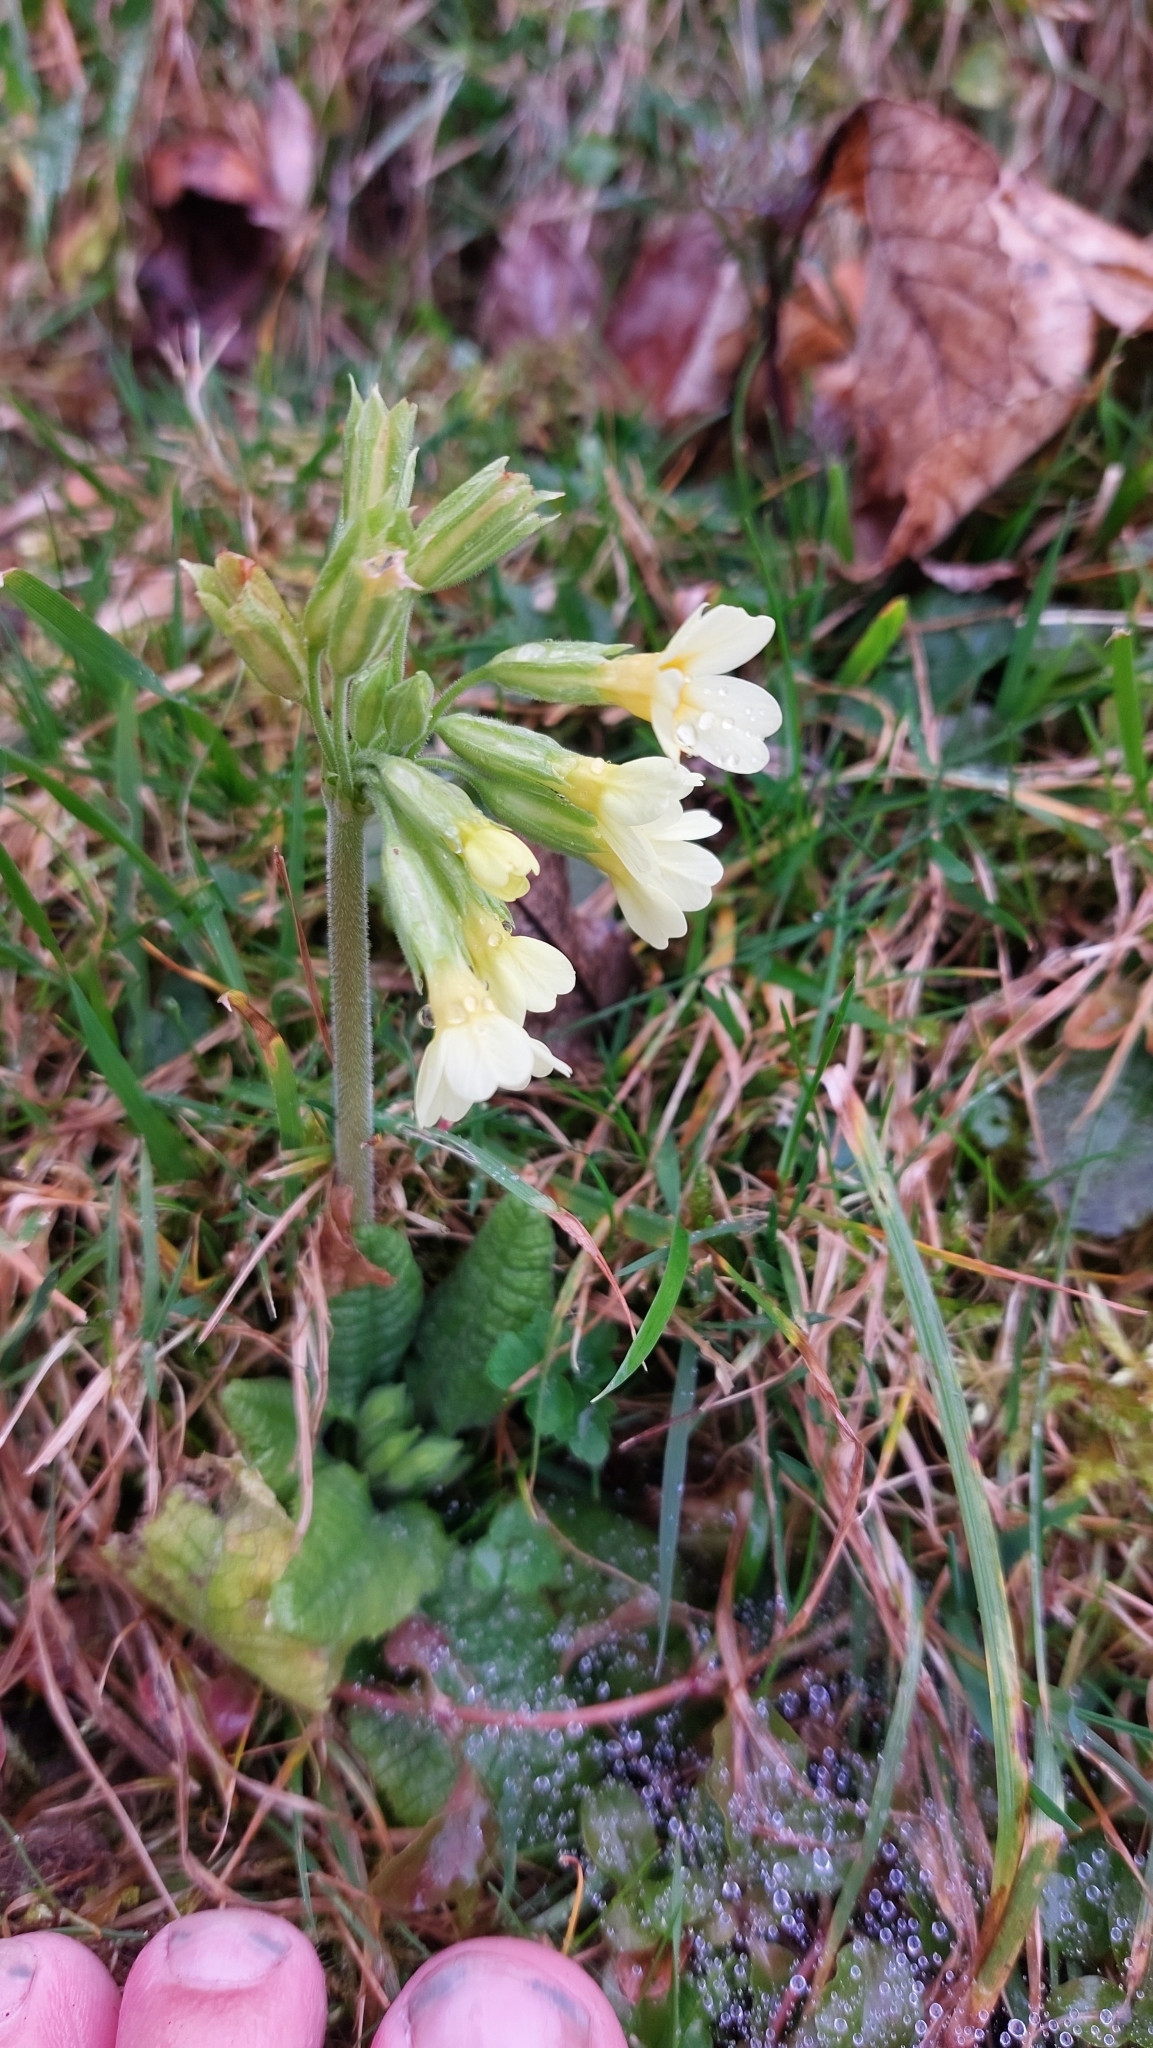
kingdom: Plantae
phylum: Tracheophyta
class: Magnoliopsida
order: Ericales
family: Primulaceae
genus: Primula
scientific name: Primula elatior
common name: Oxlip
